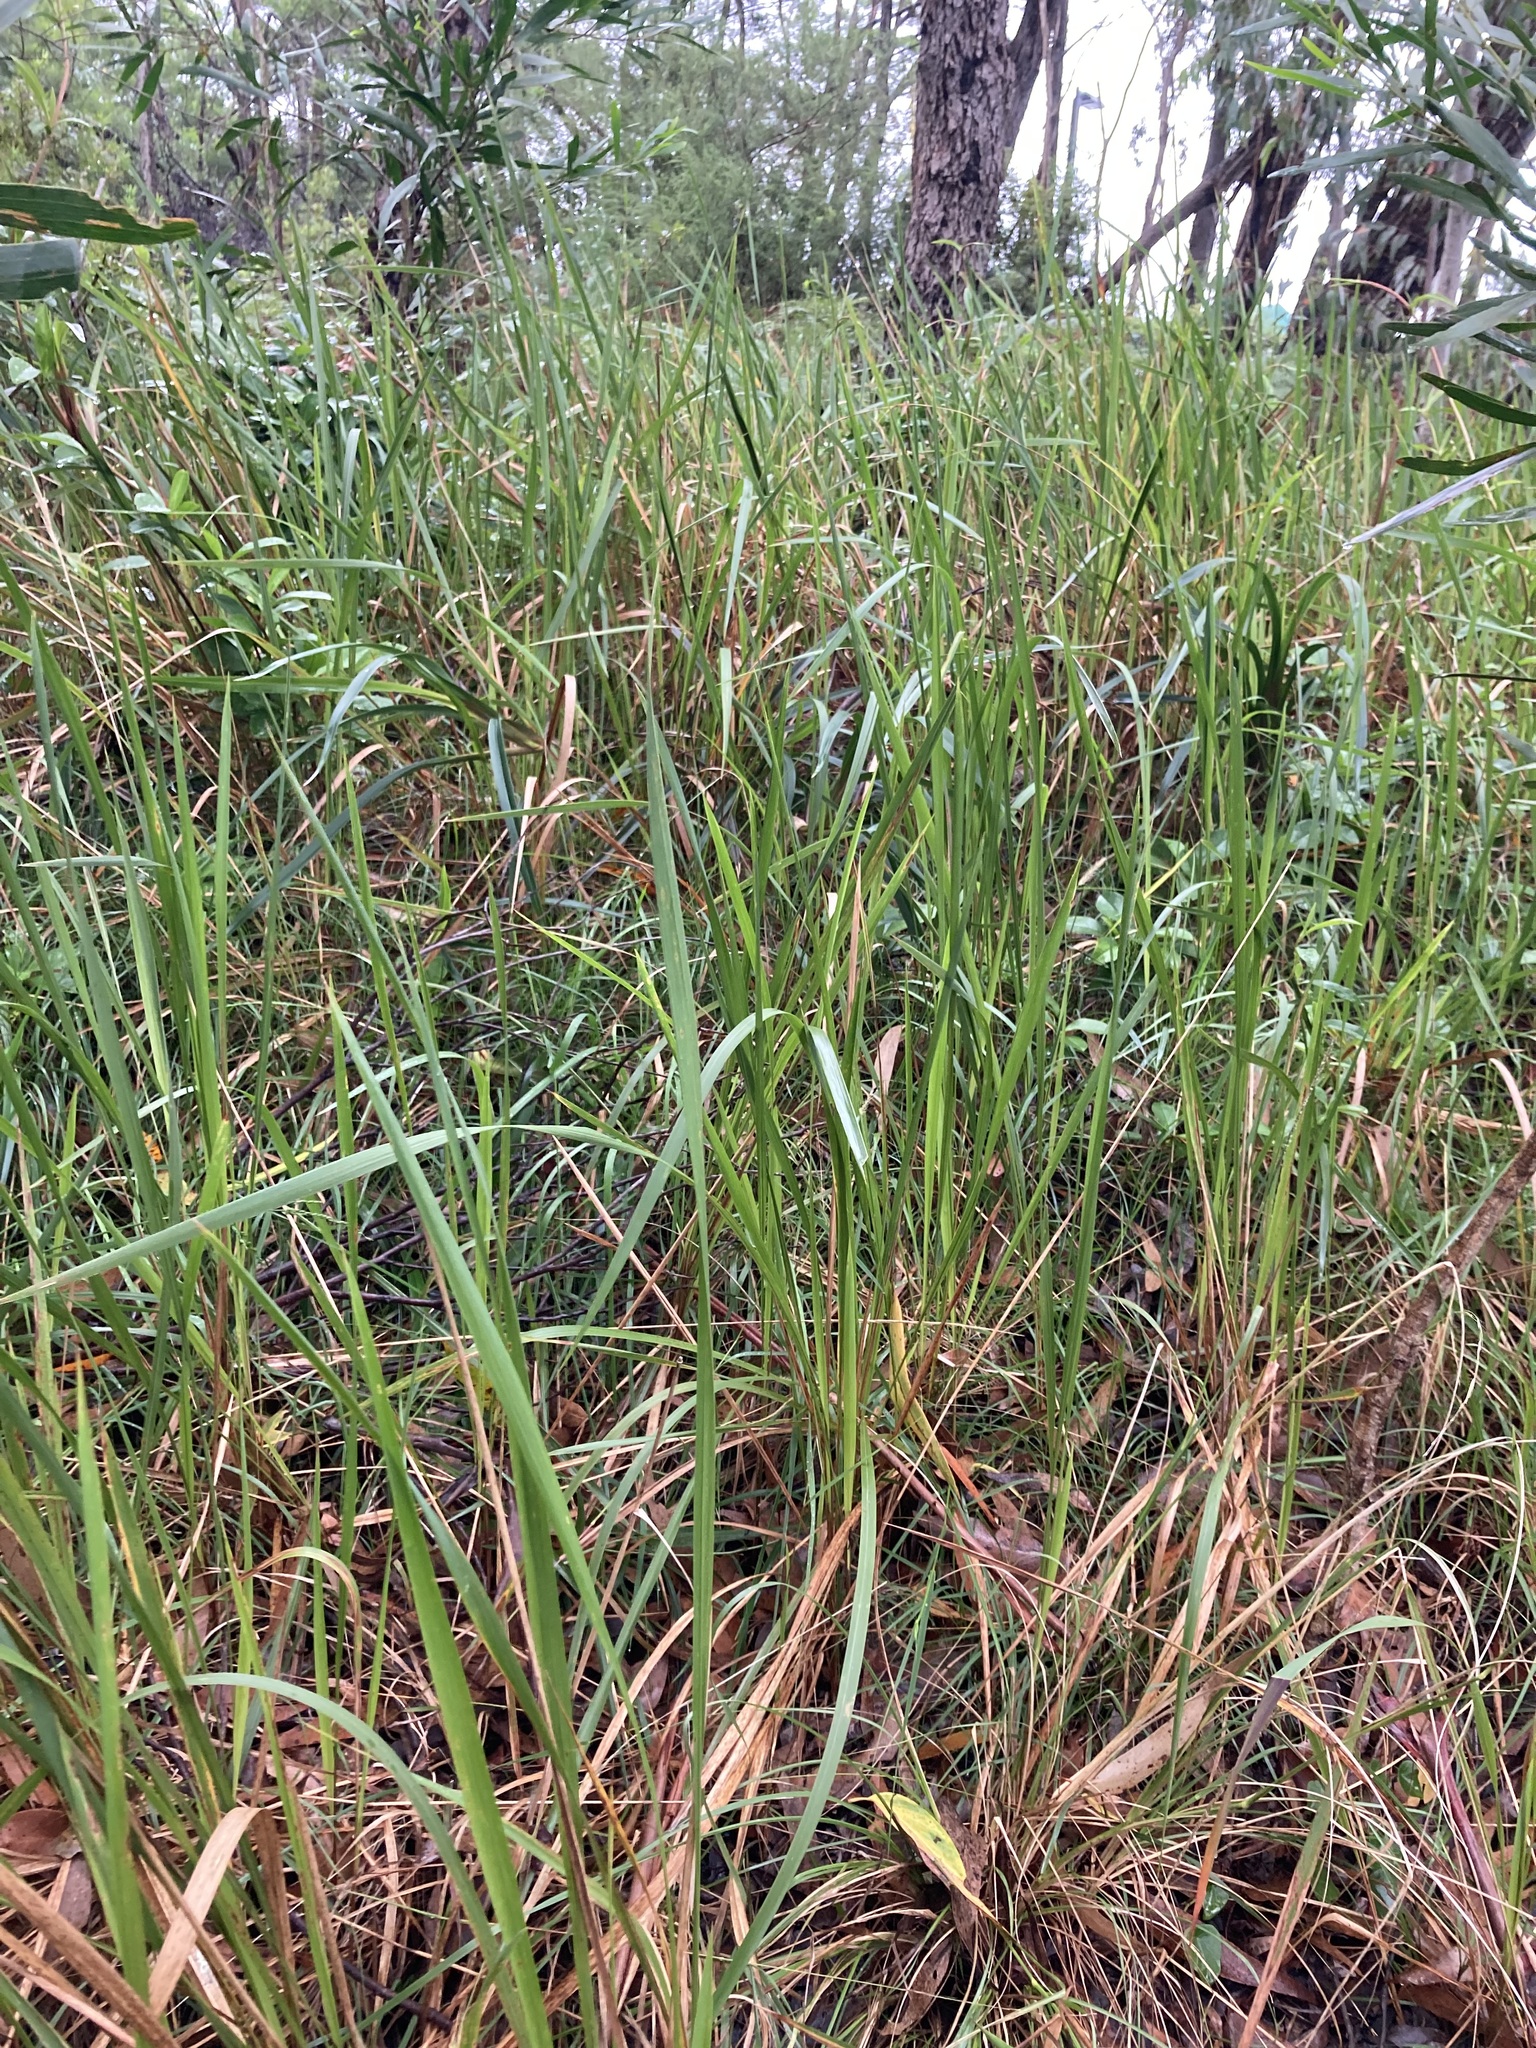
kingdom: Plantae
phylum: Tracheophyta
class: Liliopsida
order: Poales
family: Poaceae
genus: Imperata
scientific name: Imperata cylindrica
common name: Cogongrass
